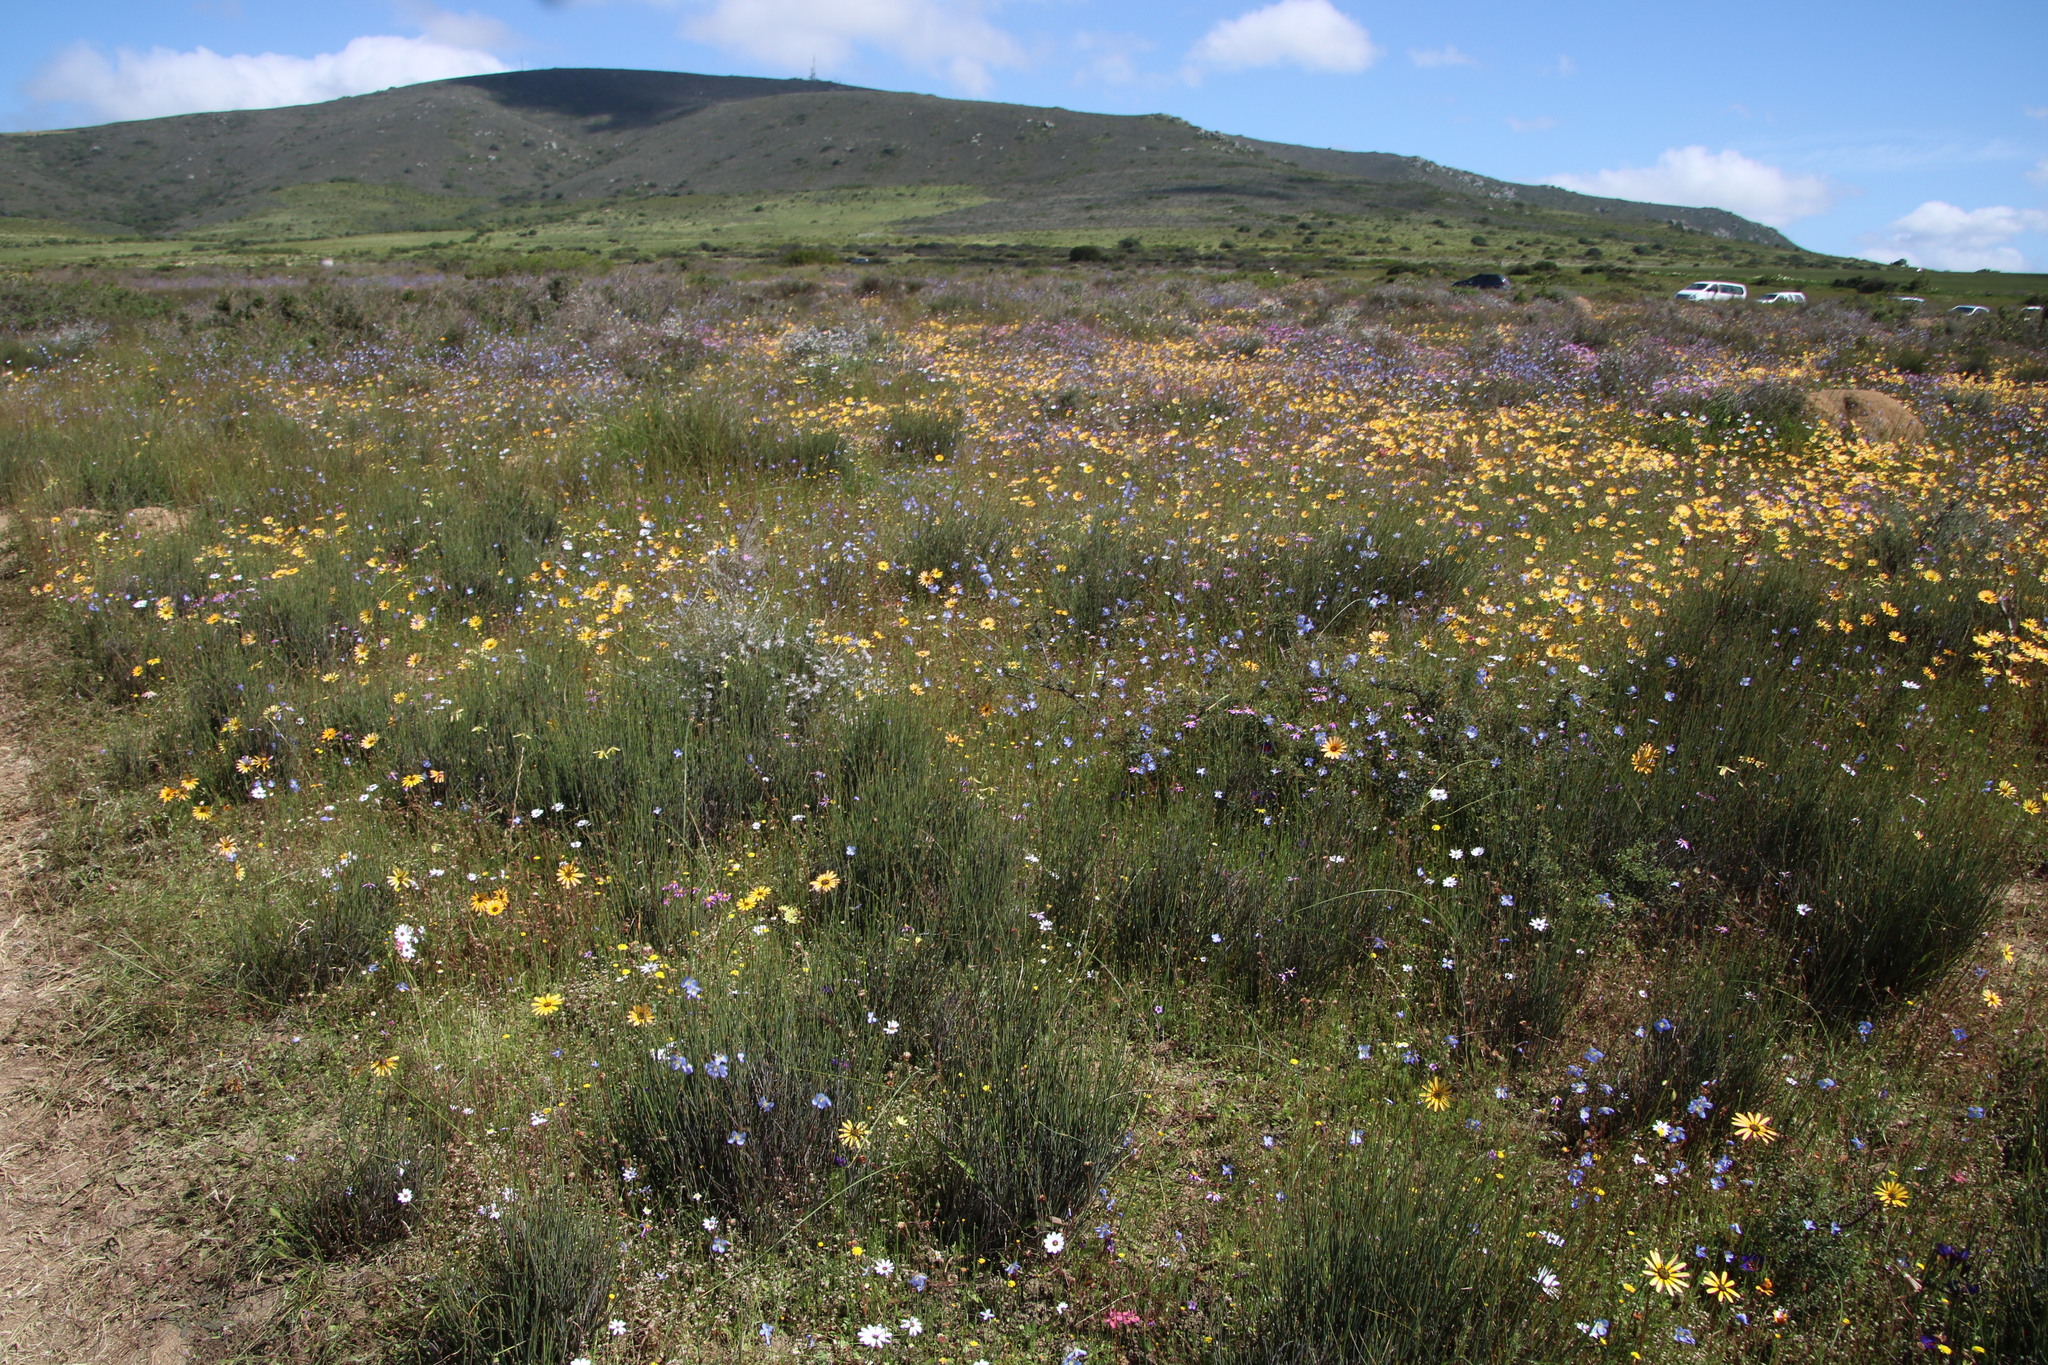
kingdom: Plantae
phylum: Tracheophyta
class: Liliopsida
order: Poales
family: Restionaceae
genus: Willdenowia
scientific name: Willdenowia incurvata
